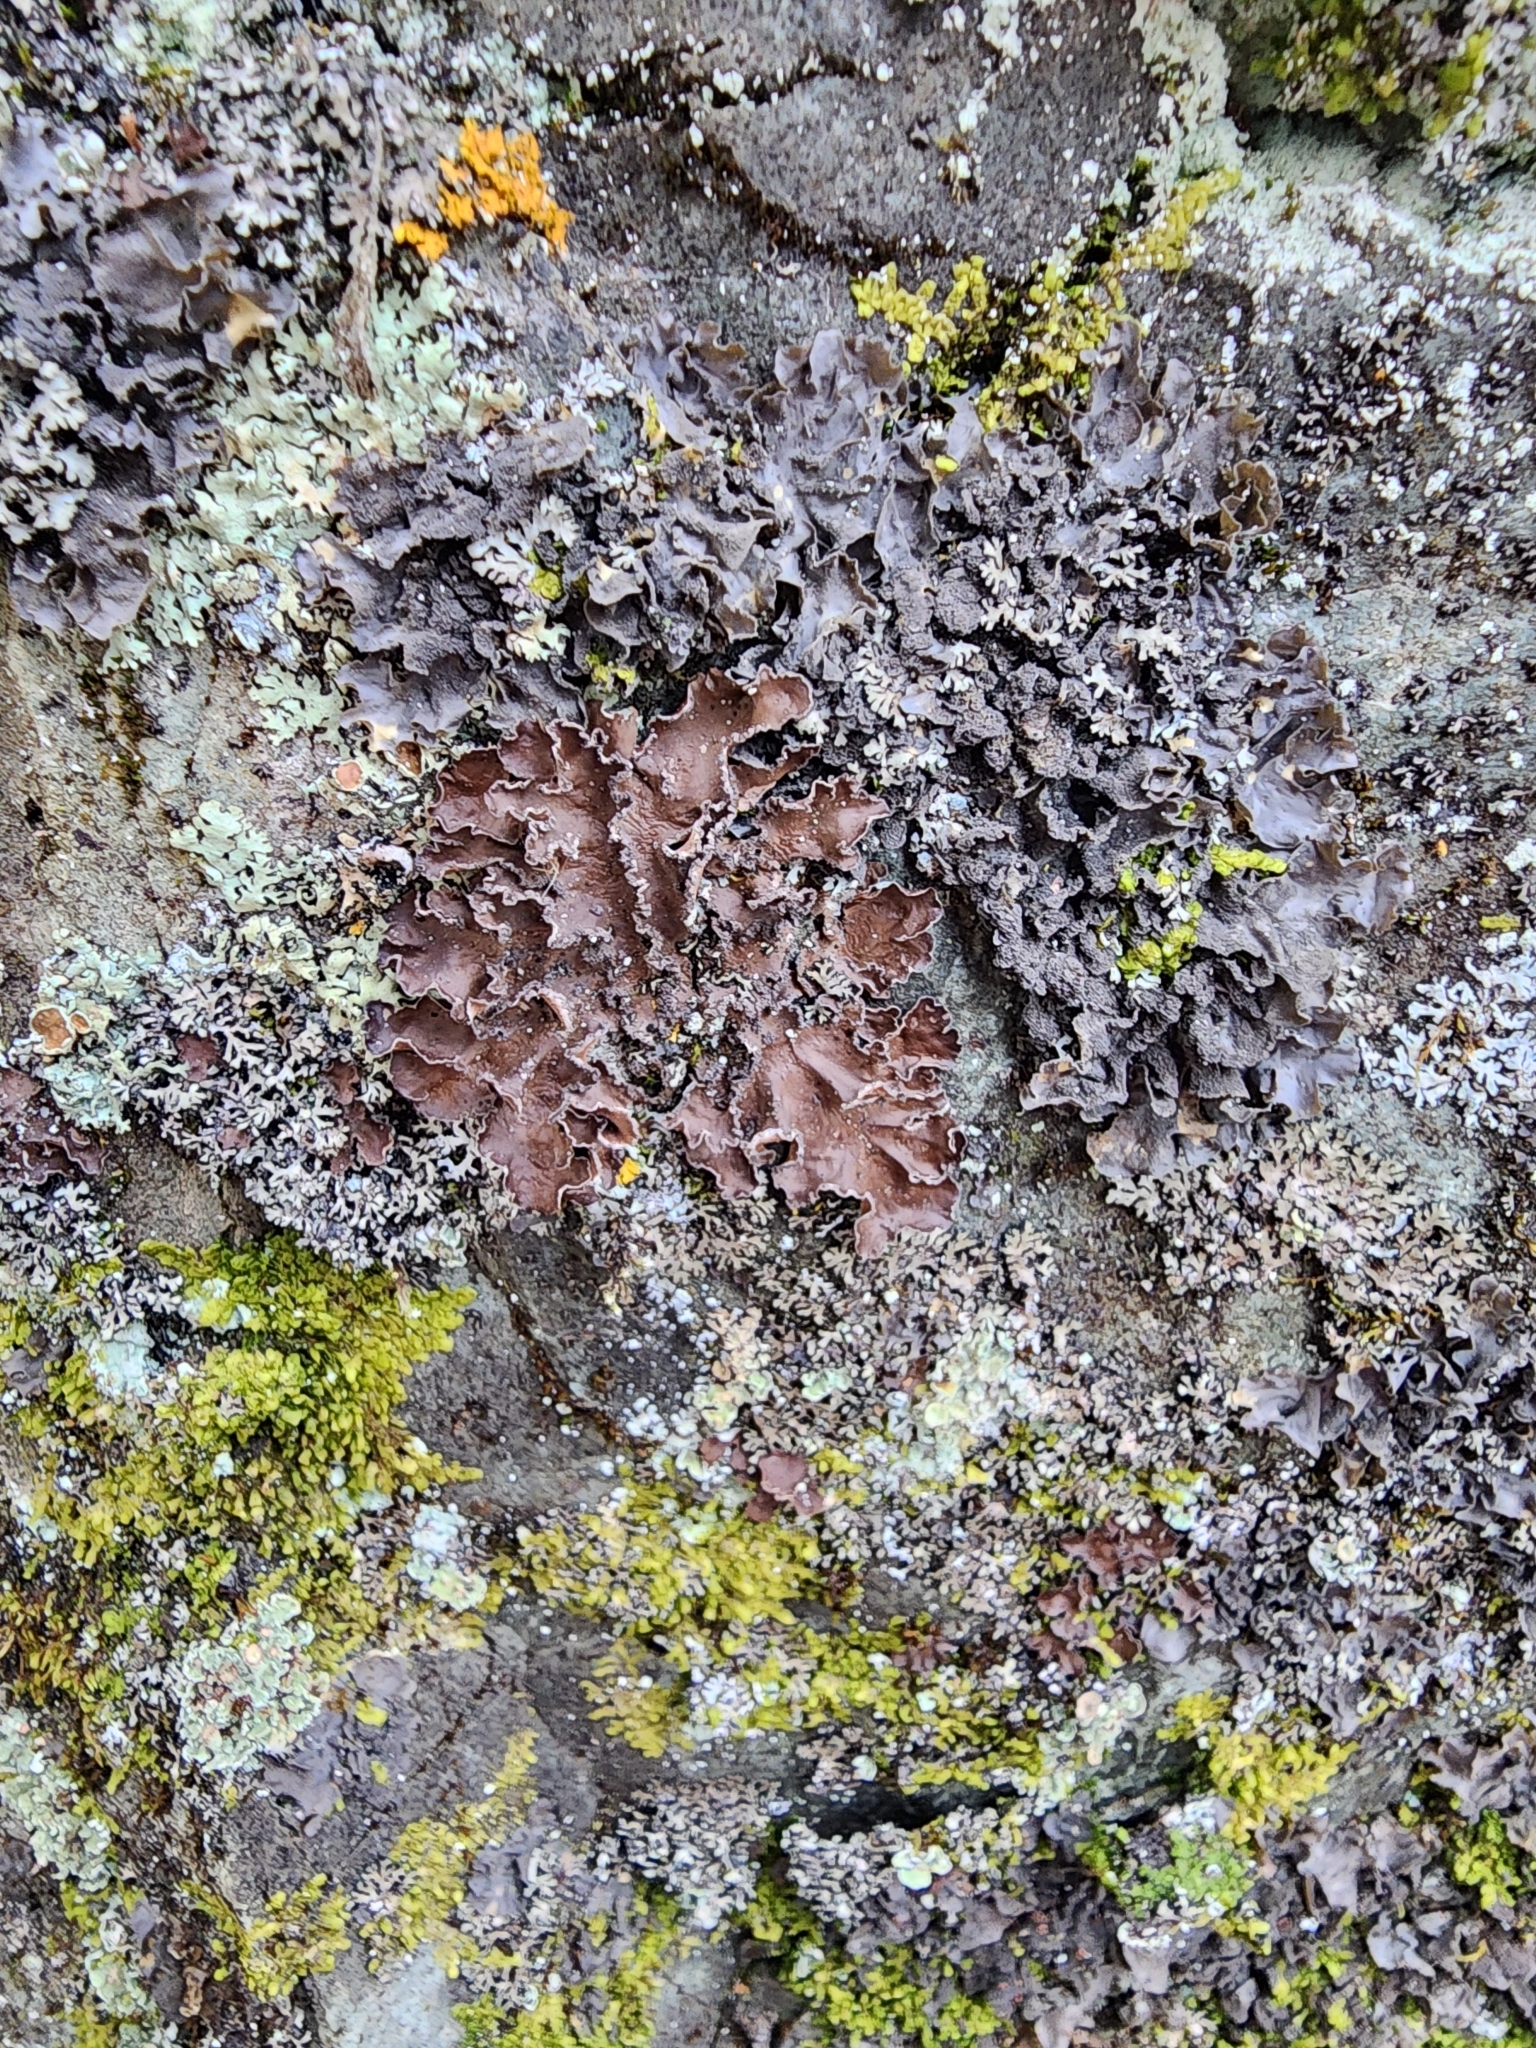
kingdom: Fungi
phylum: Ascomycota
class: Lecanoromycetes
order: Peltigerales
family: Nephromataceae
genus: Nephroma
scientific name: Nephroma parile
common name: Powdery kidney lichen
